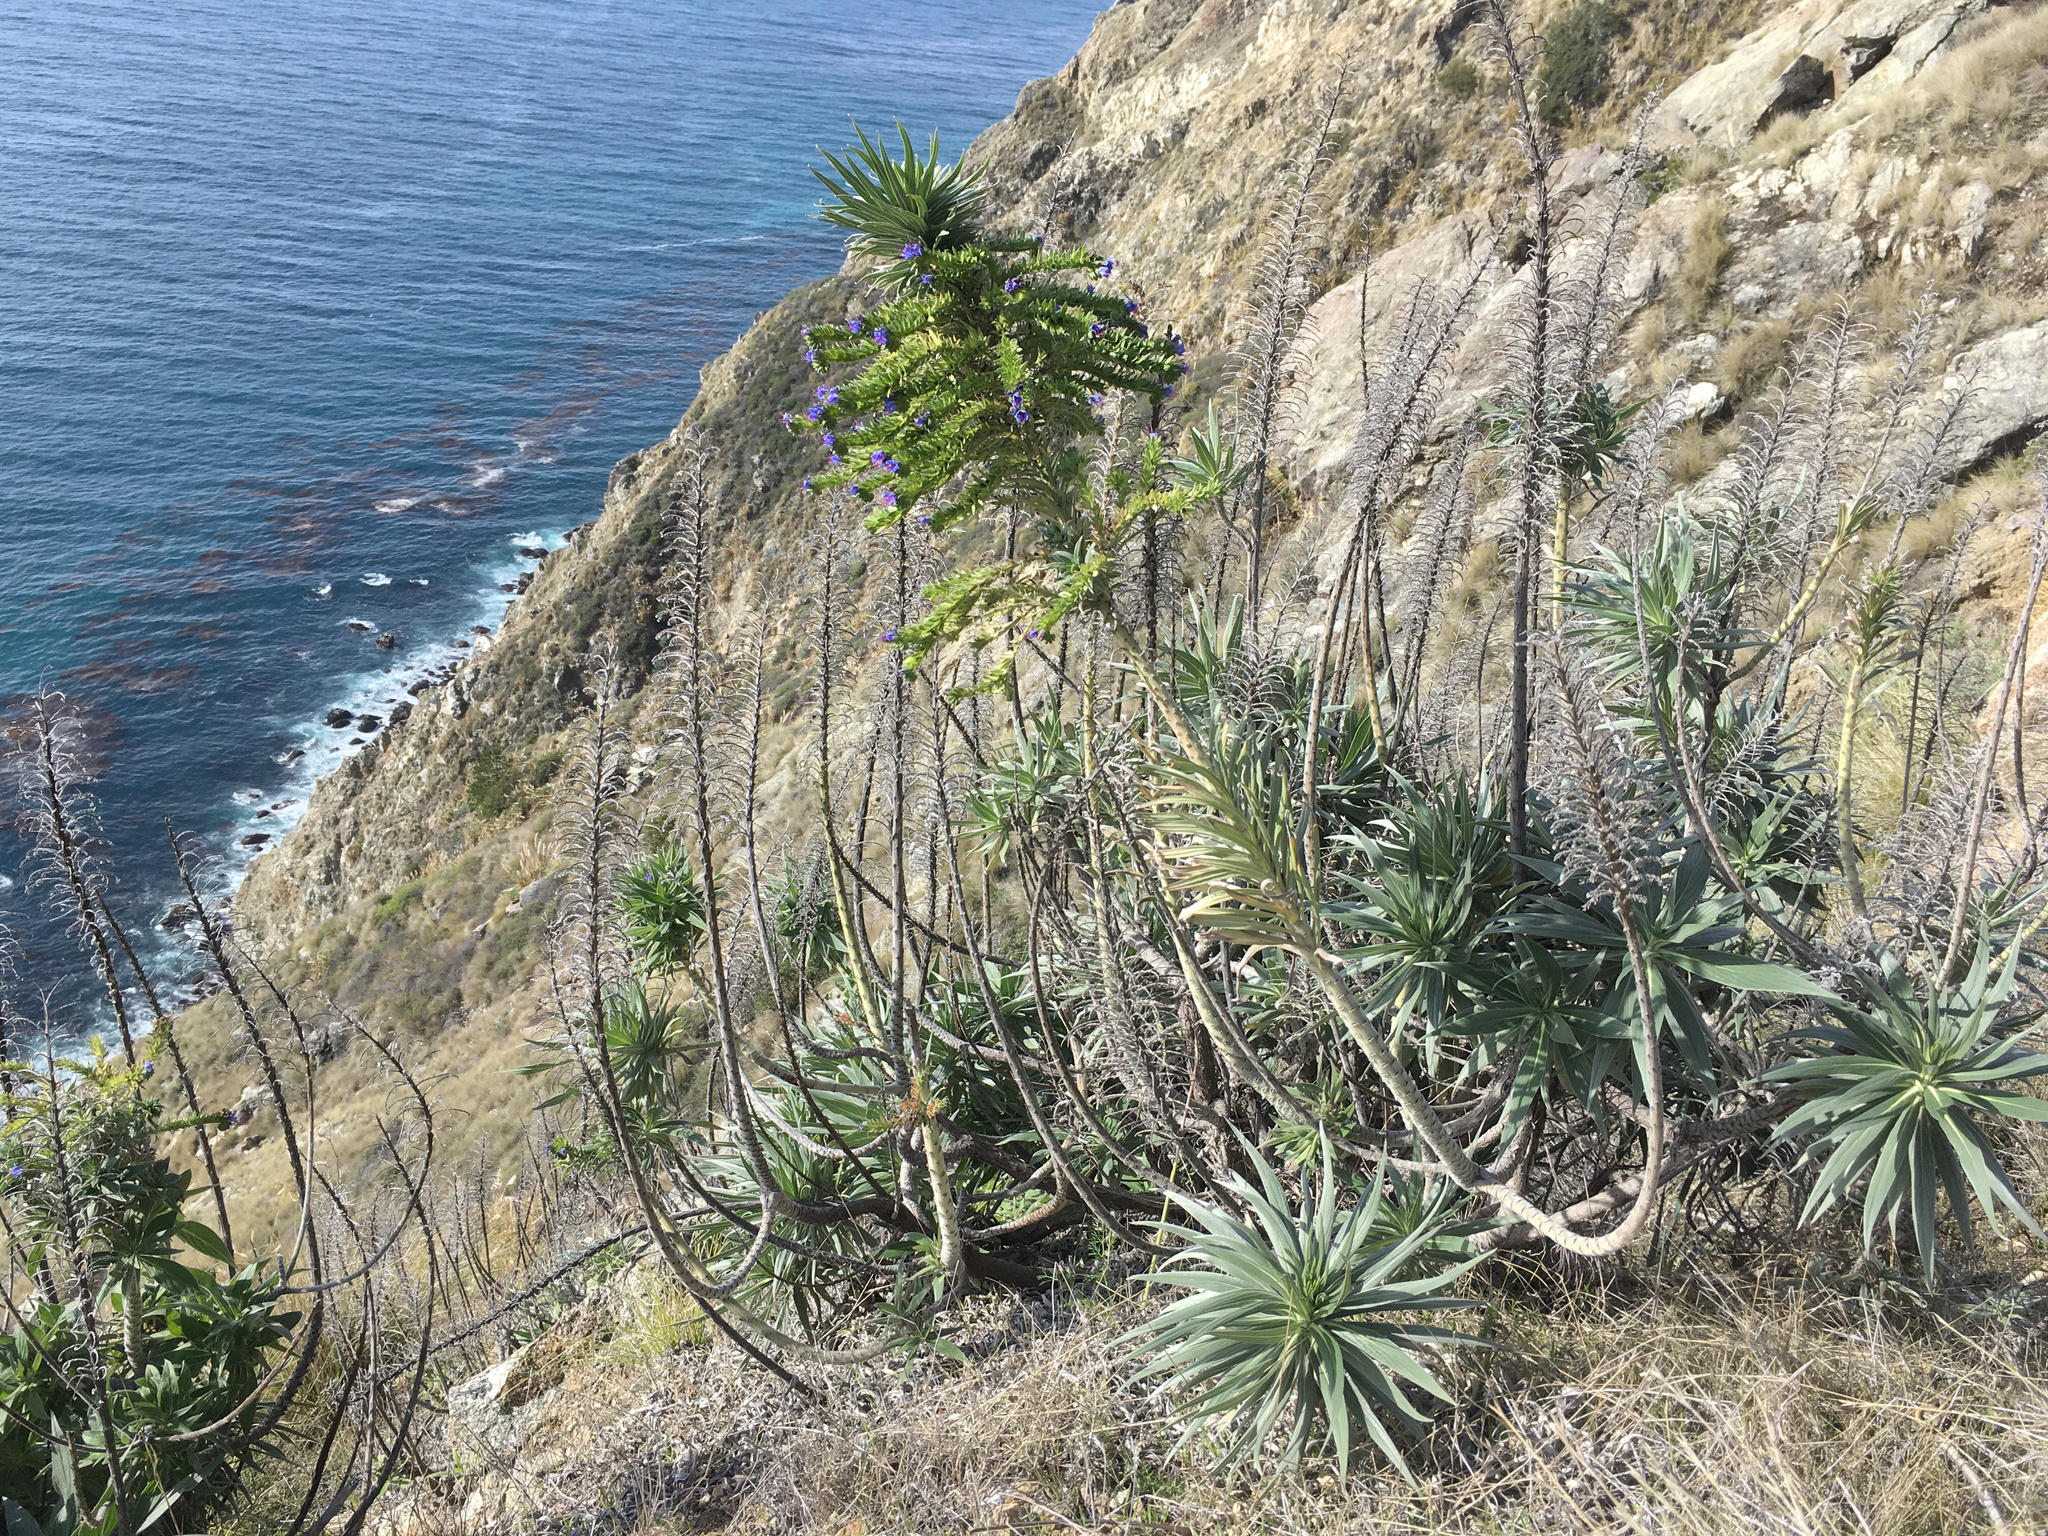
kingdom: Plantae
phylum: Tracheophyta
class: Magnoliopsida
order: Boraginales
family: Boraginaceae
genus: Echium
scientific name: Echium candicans
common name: Pride of madeira
